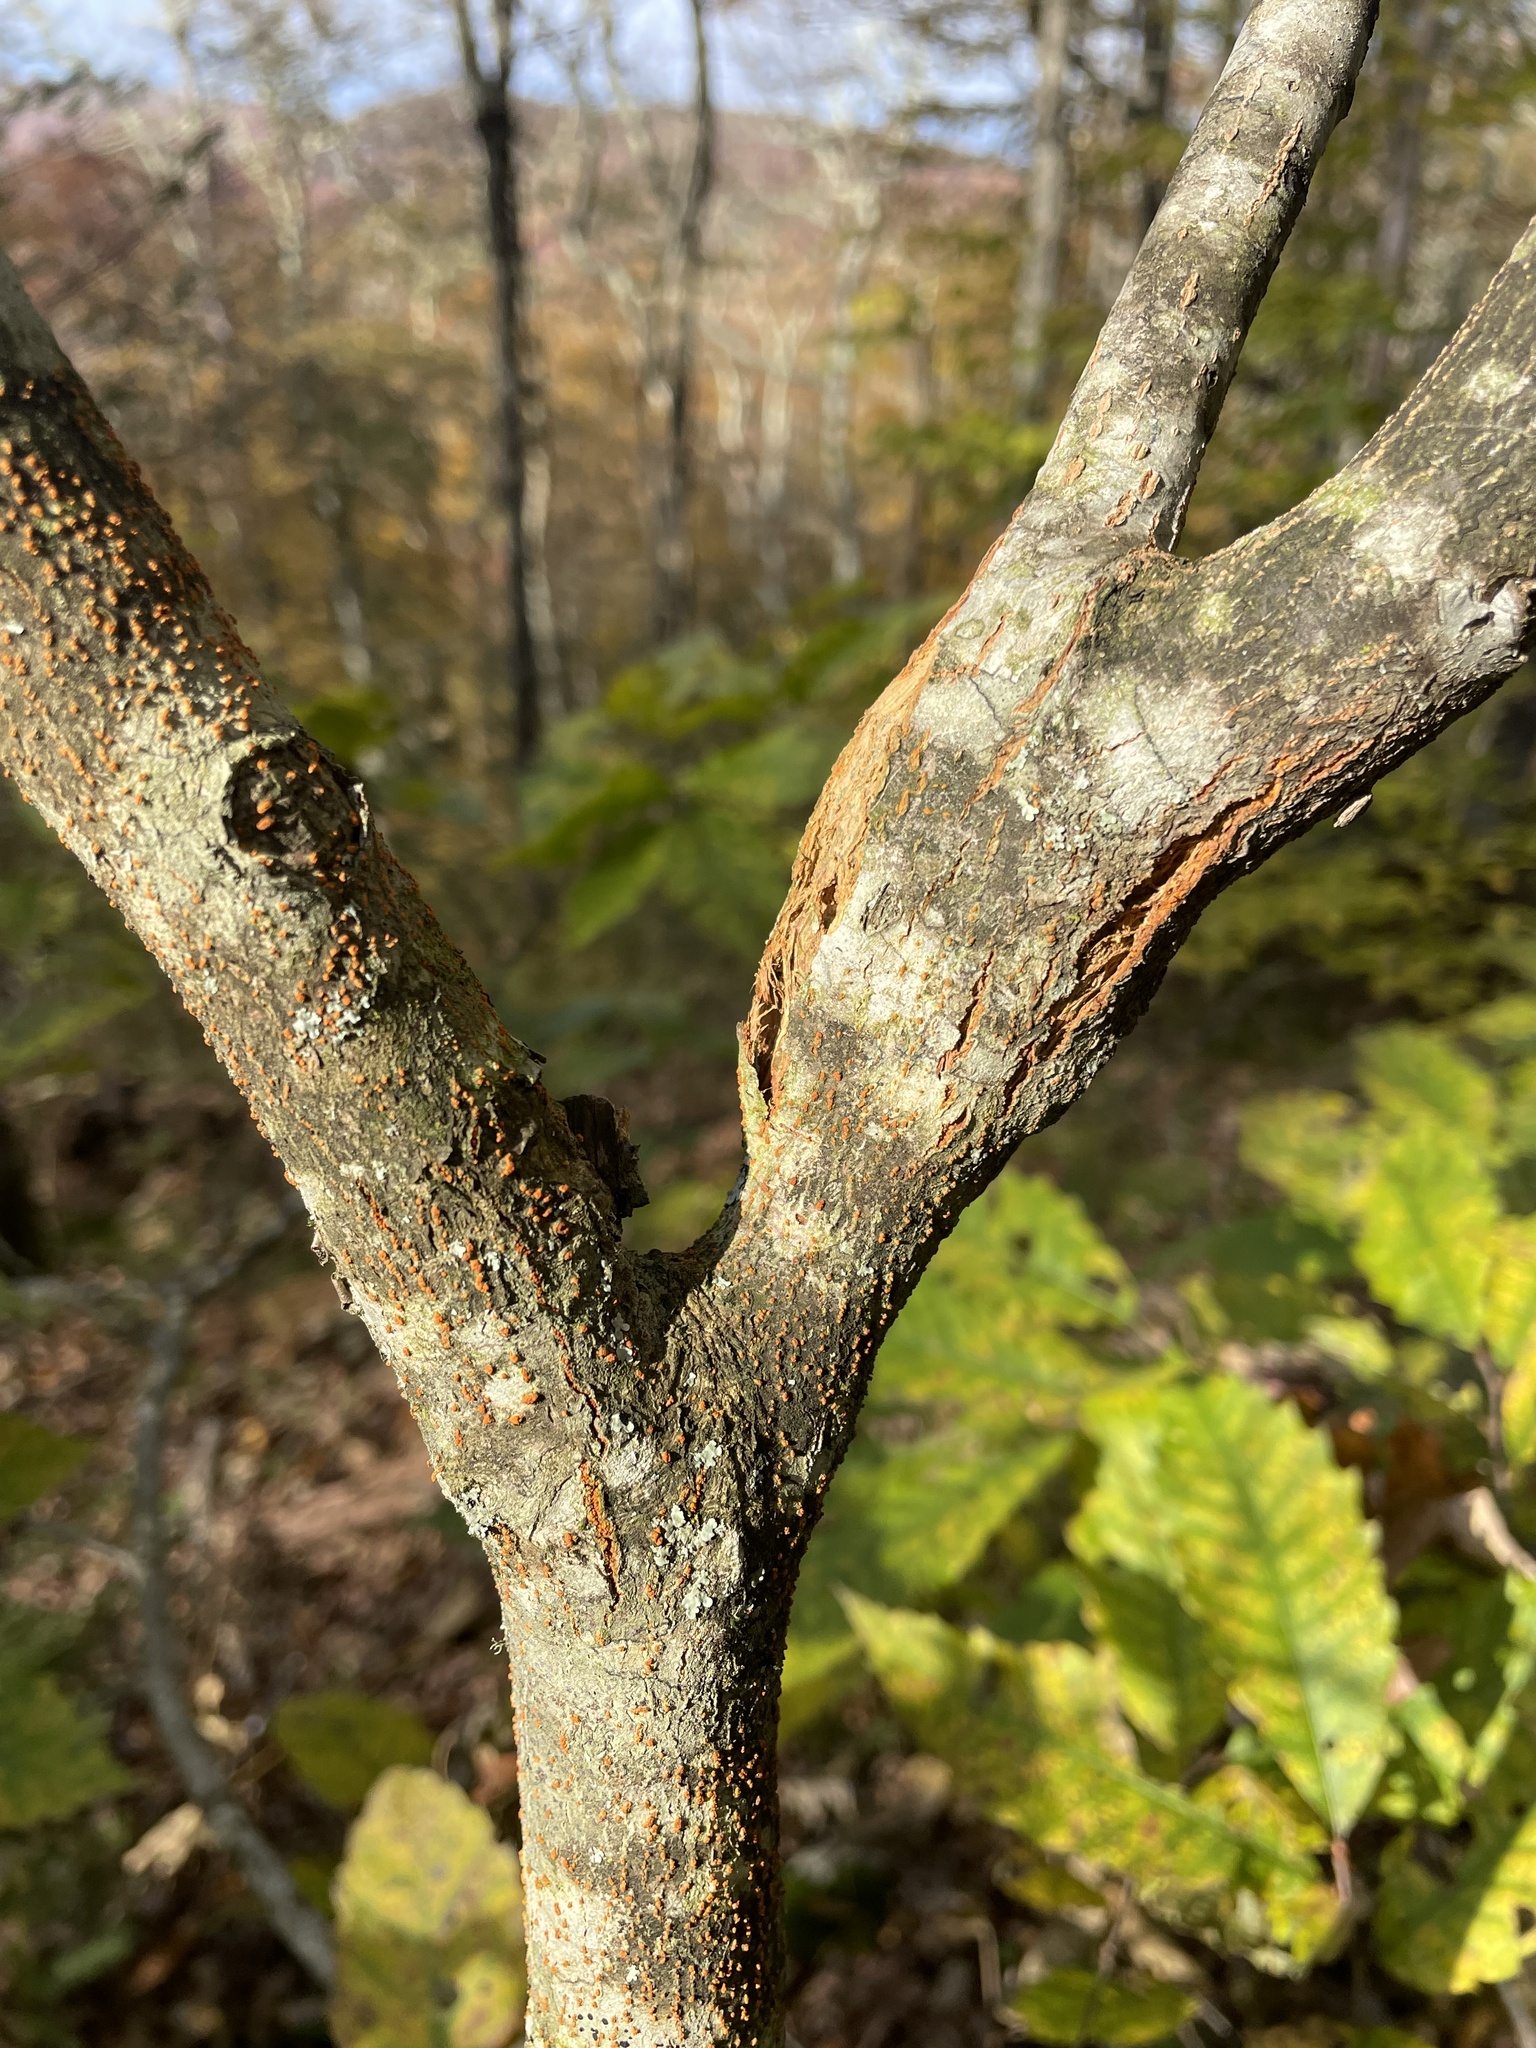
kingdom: Fungi
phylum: Ascomycota
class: Sordariomycetes
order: Diaporthales
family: Cryphonectriaceae
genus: Cryphonectria
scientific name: Cryphonectria parasitica
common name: Chestnut blight
